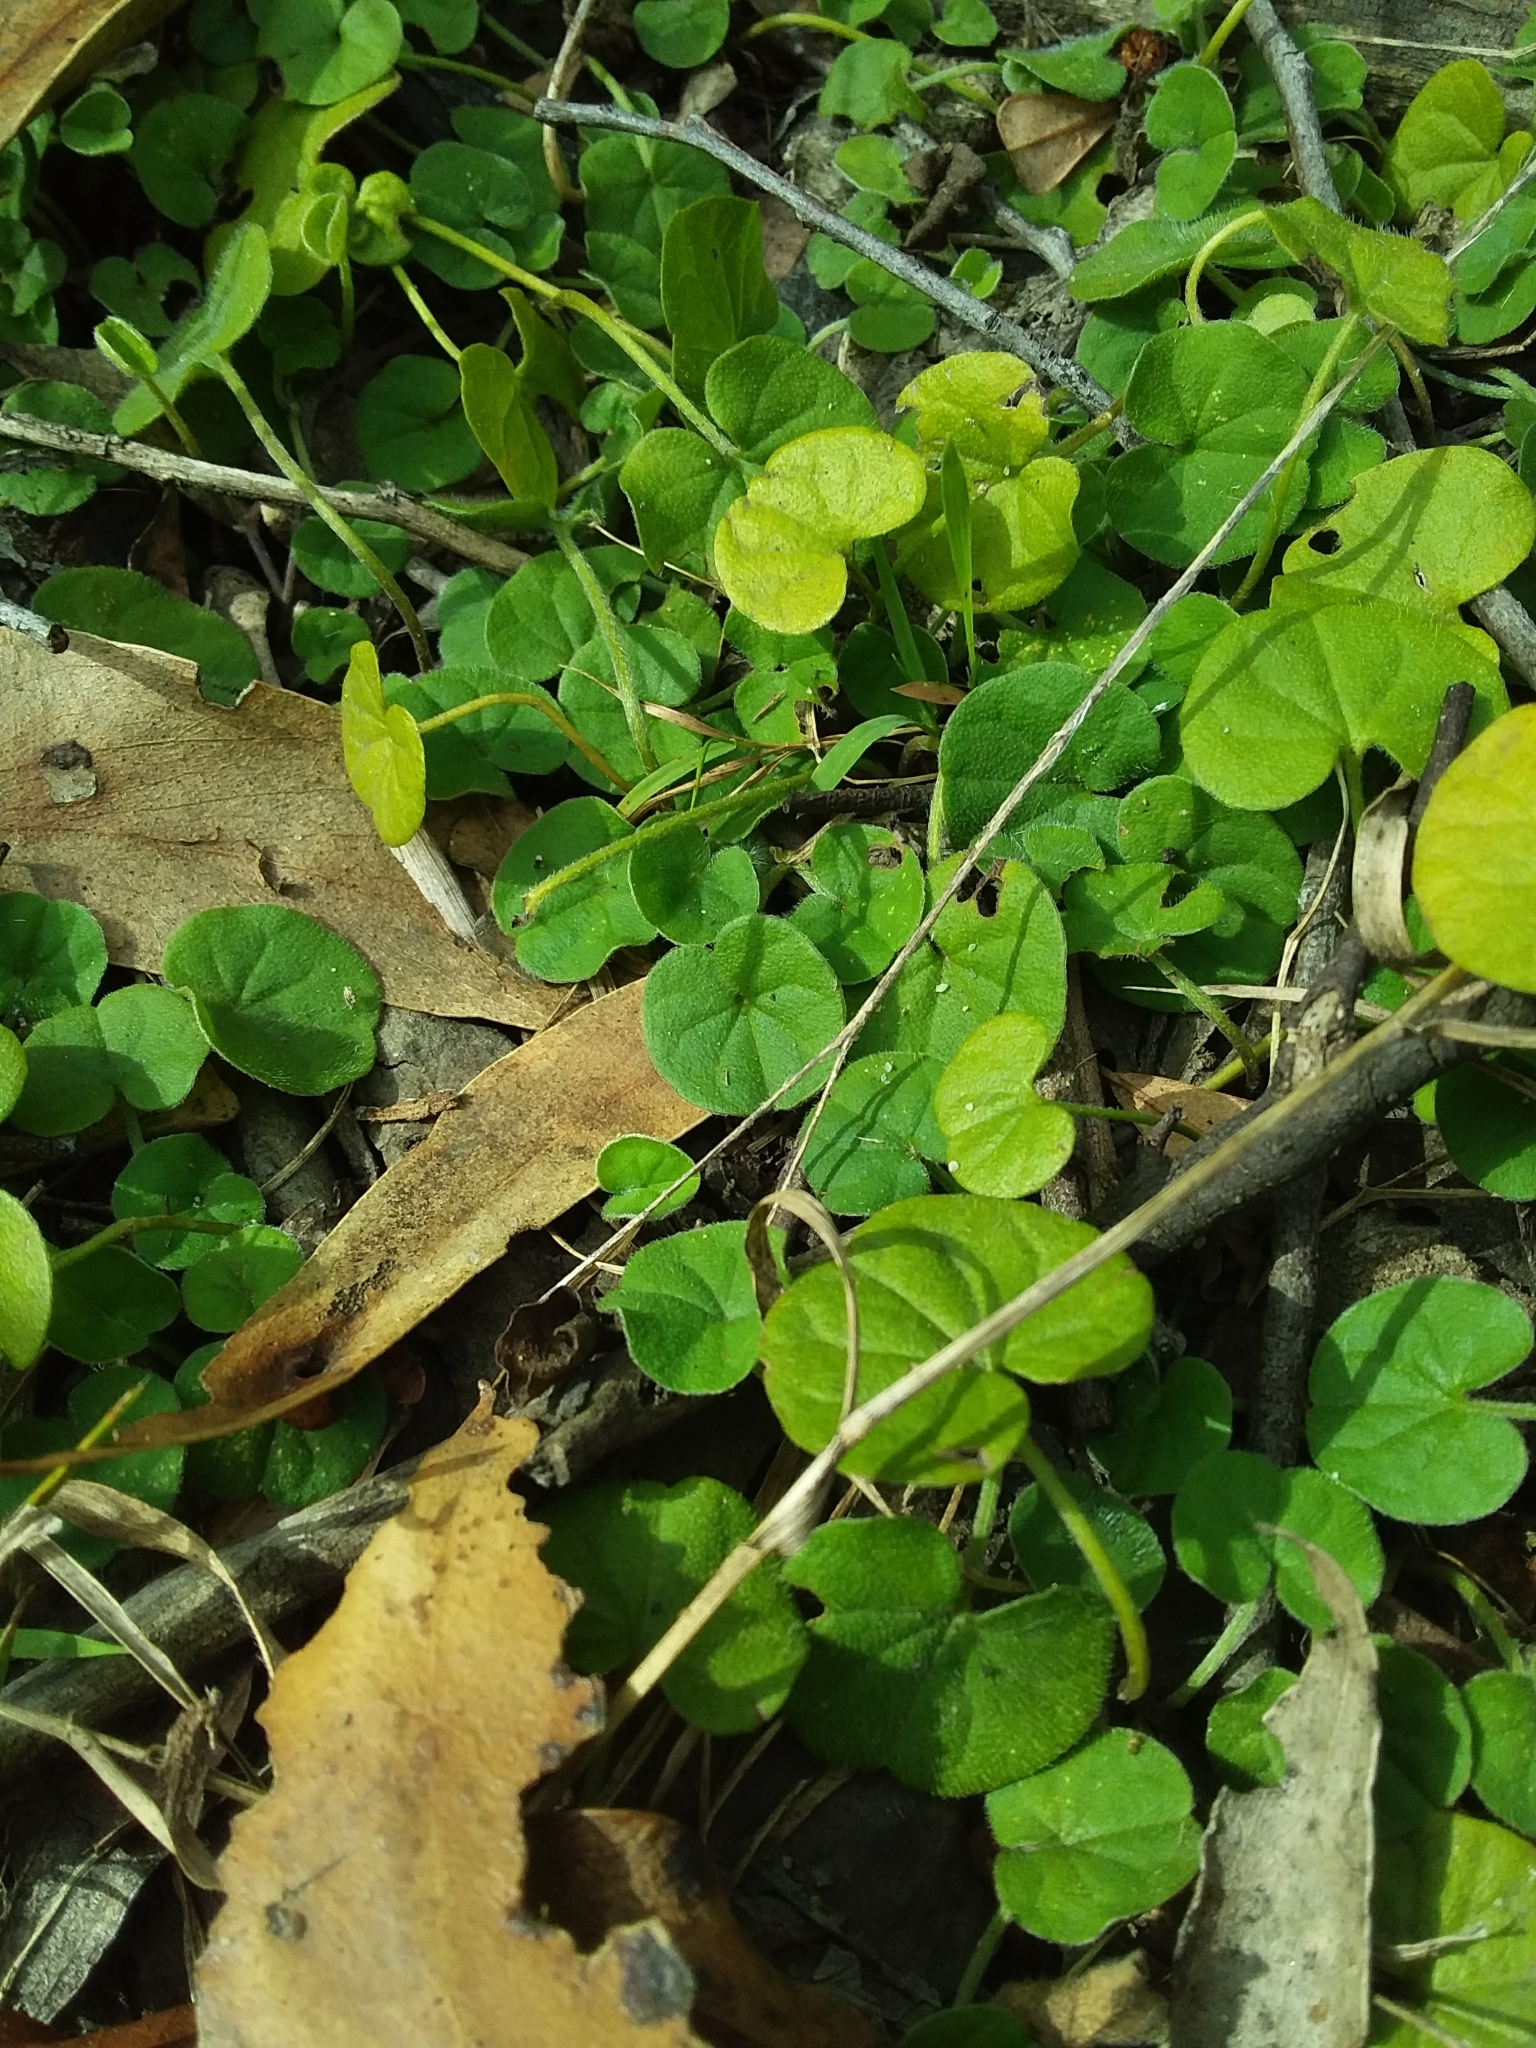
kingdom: Plantae
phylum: Tracheophyta
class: Magnoliopsida
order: Solanales
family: Convolvulaceae
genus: Dichondra
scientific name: Dichondra repens
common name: Kidneyweed
